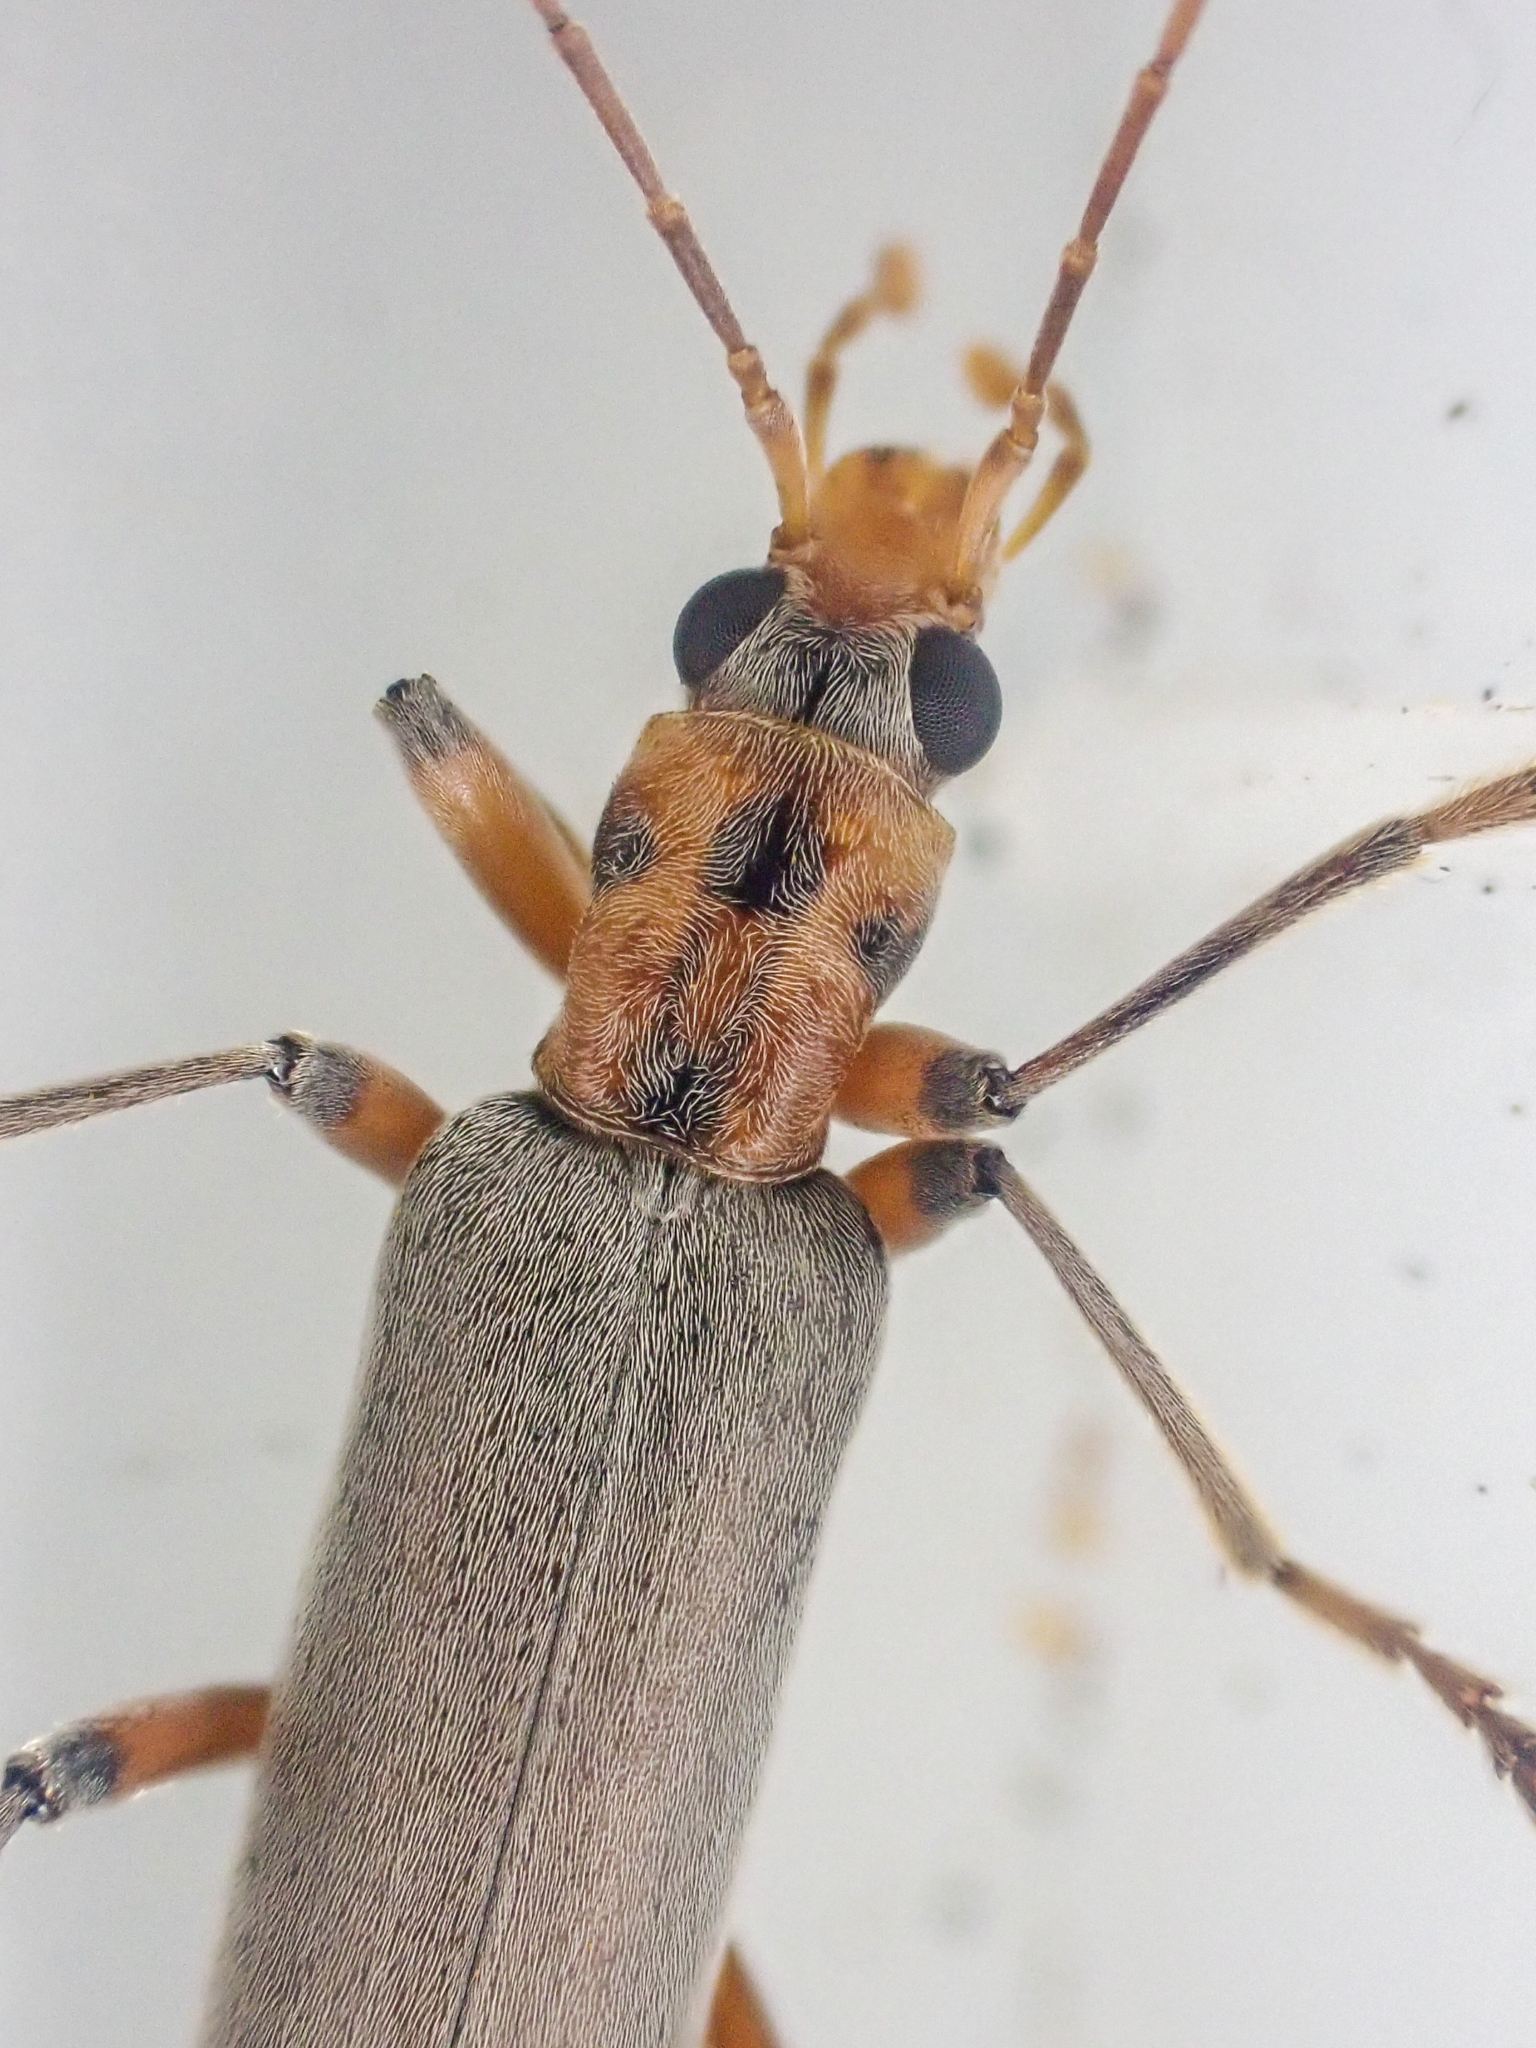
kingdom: Animalia
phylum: Arthropoda
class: Insecta
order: Coleoptera
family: Oedemeridae
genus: Copidita
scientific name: Copidita quadrimaculata
